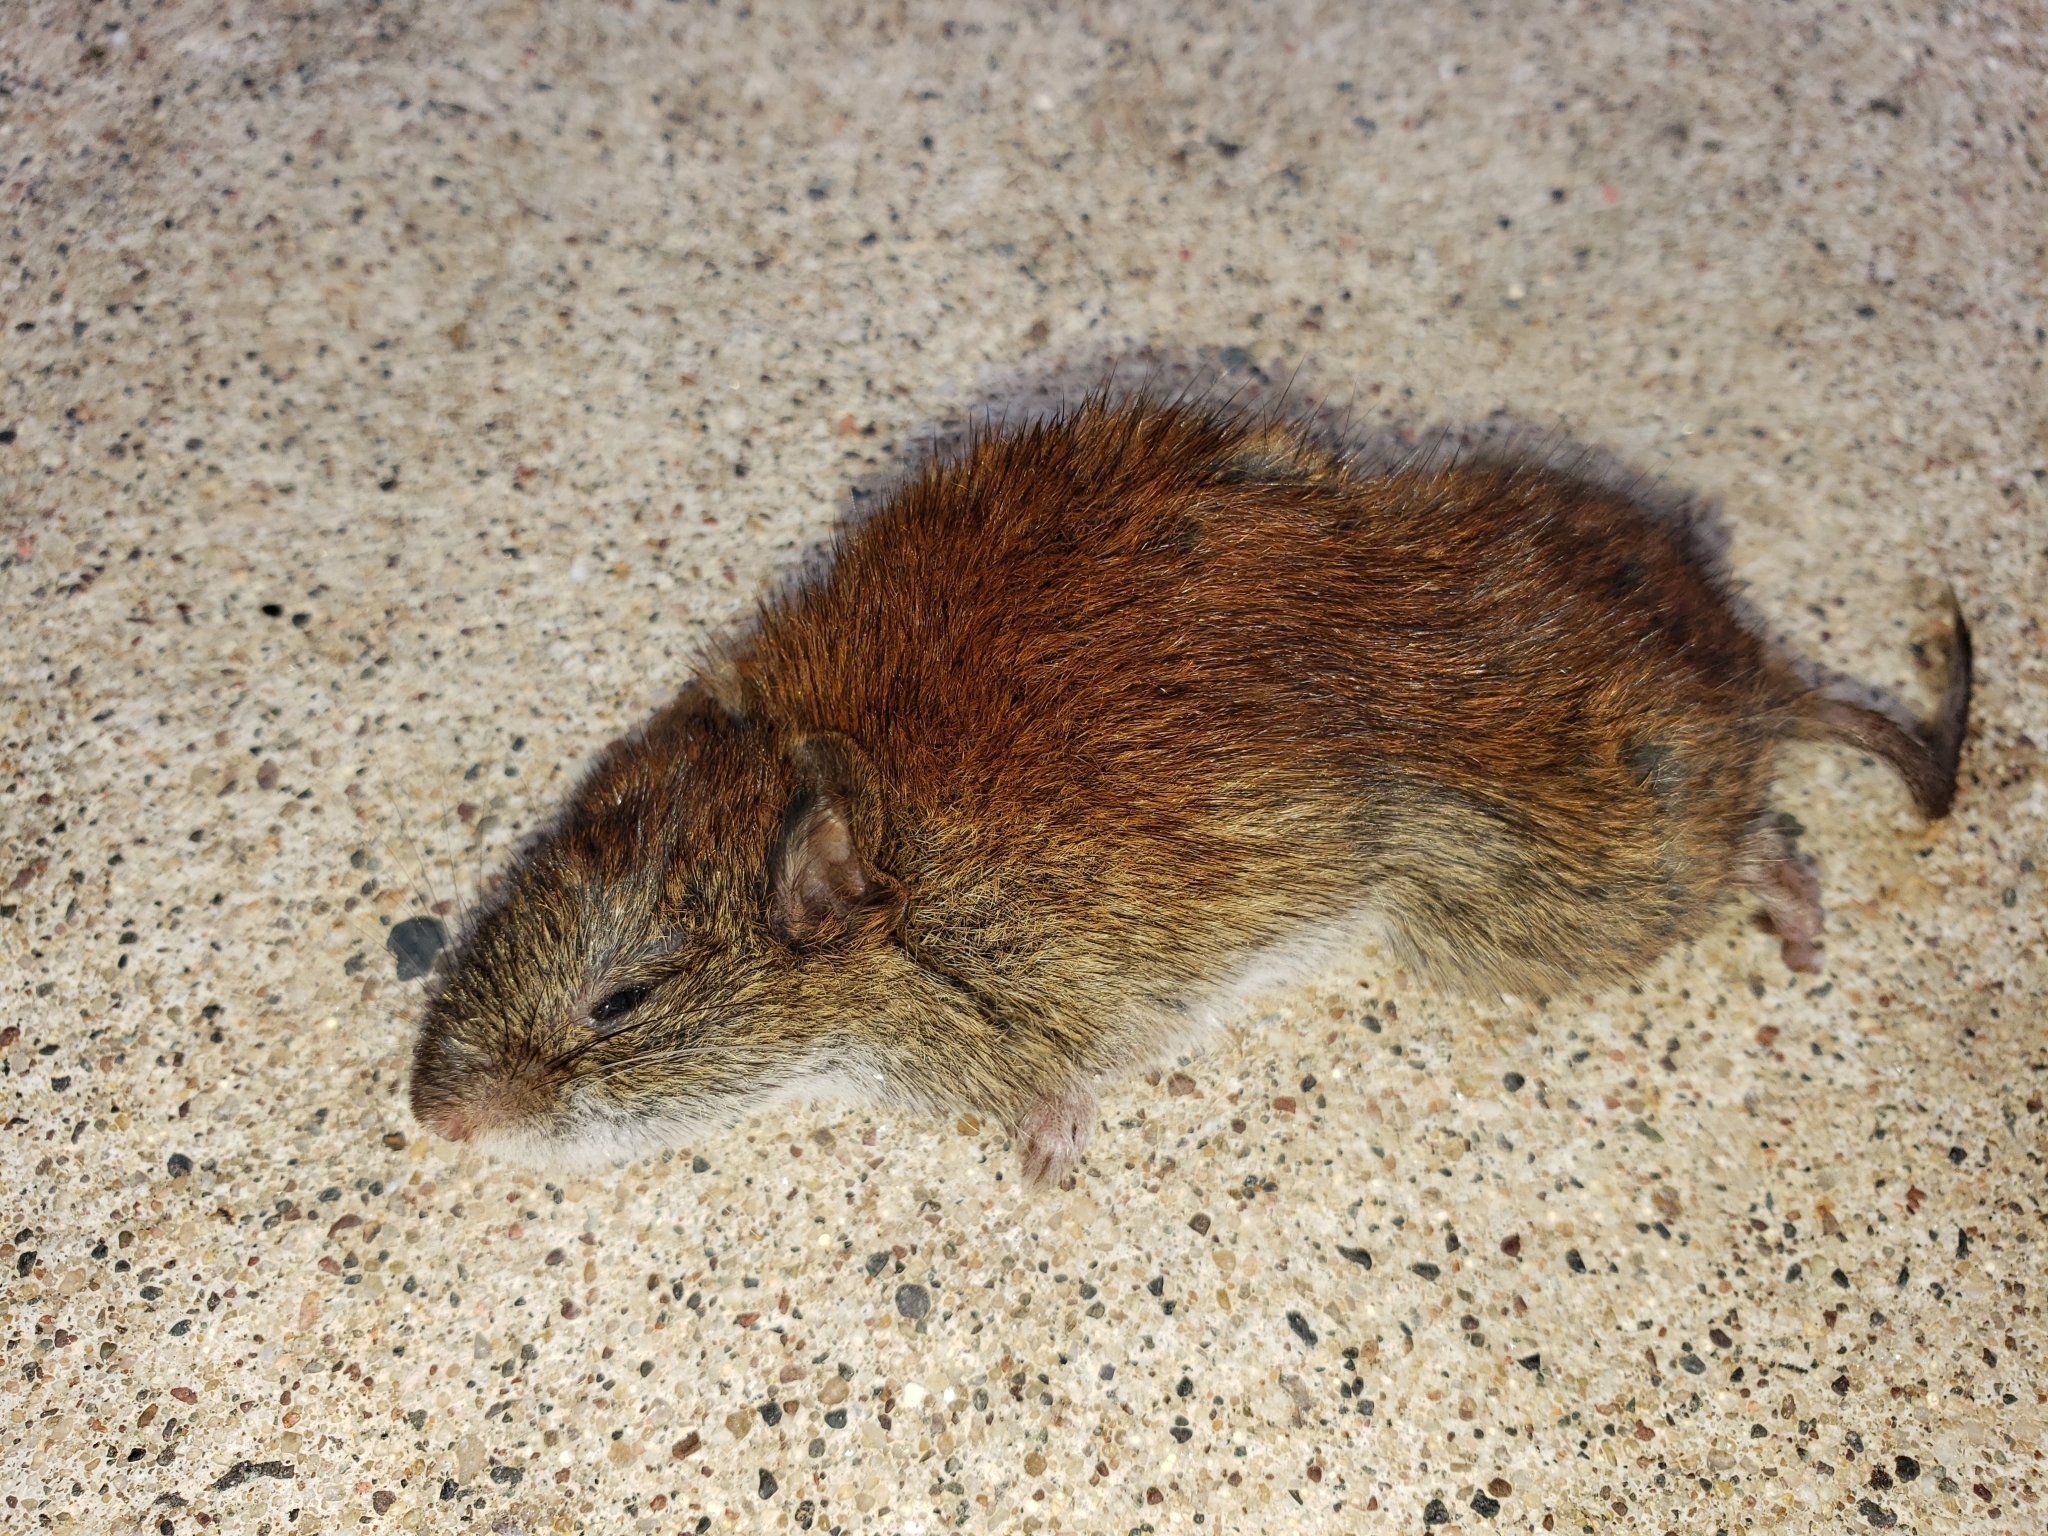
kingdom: Animalia
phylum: Chordata
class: Mammalia
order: Rodentia
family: Cricetidae
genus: Myodes
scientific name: Myodes gapperi
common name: Southern red-backed vole
